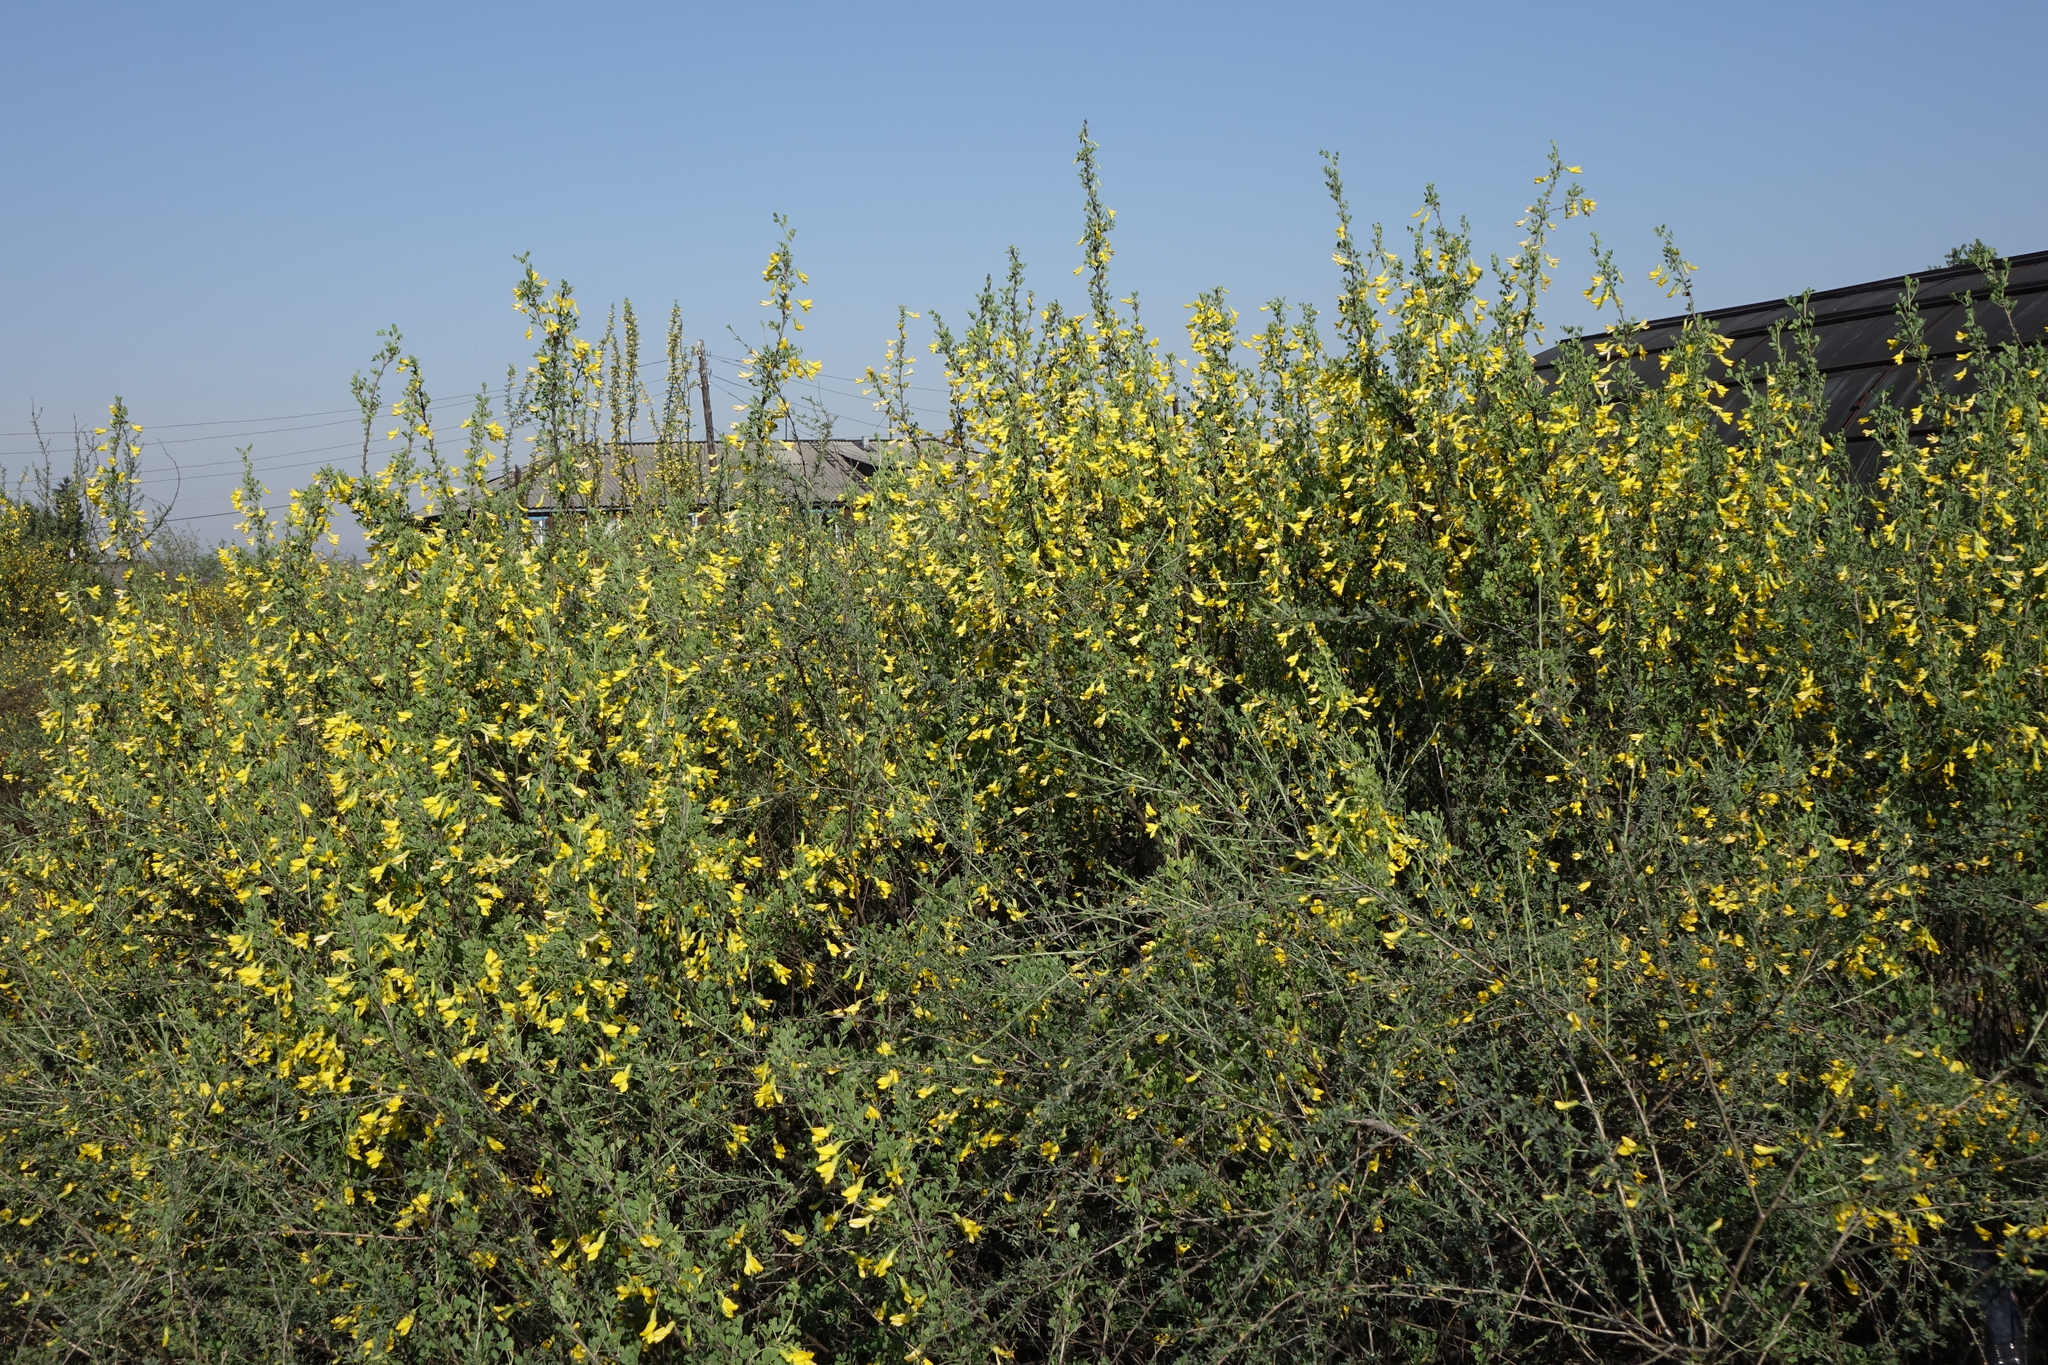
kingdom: Plantae
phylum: Tracheophyta
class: Magnoliopsida
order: Fabales
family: Fabaceae
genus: Caragana
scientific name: Caragana bungei
